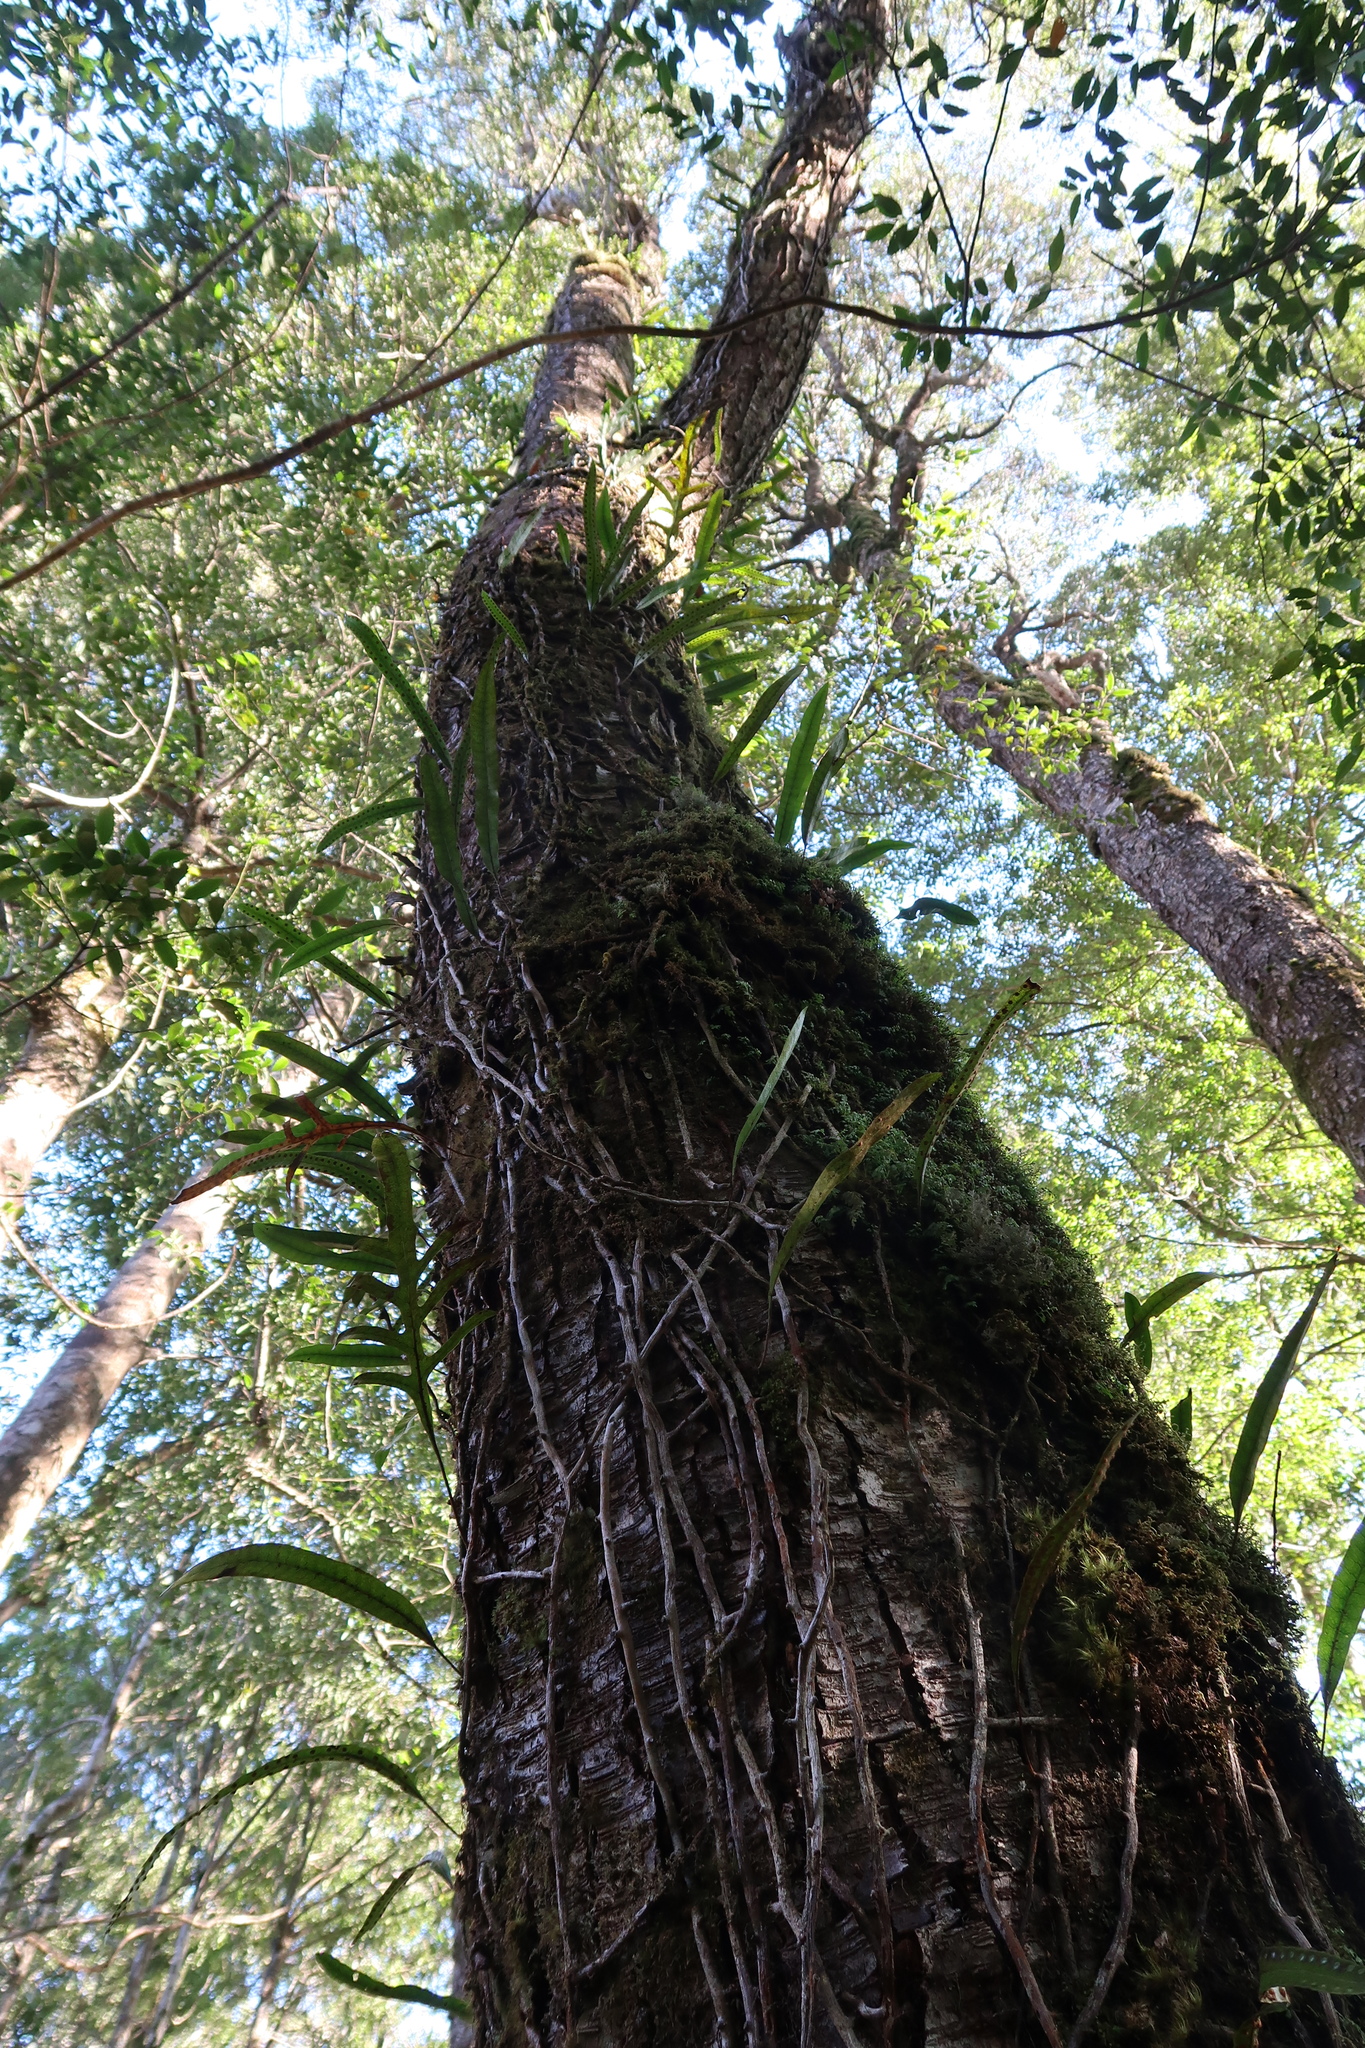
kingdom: Plantae
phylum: Tracheophyta
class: Polypodiopsida
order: Polypodiales
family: Polypodiaceae
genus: Lecanopteris
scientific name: Lecanopteris pustulata
